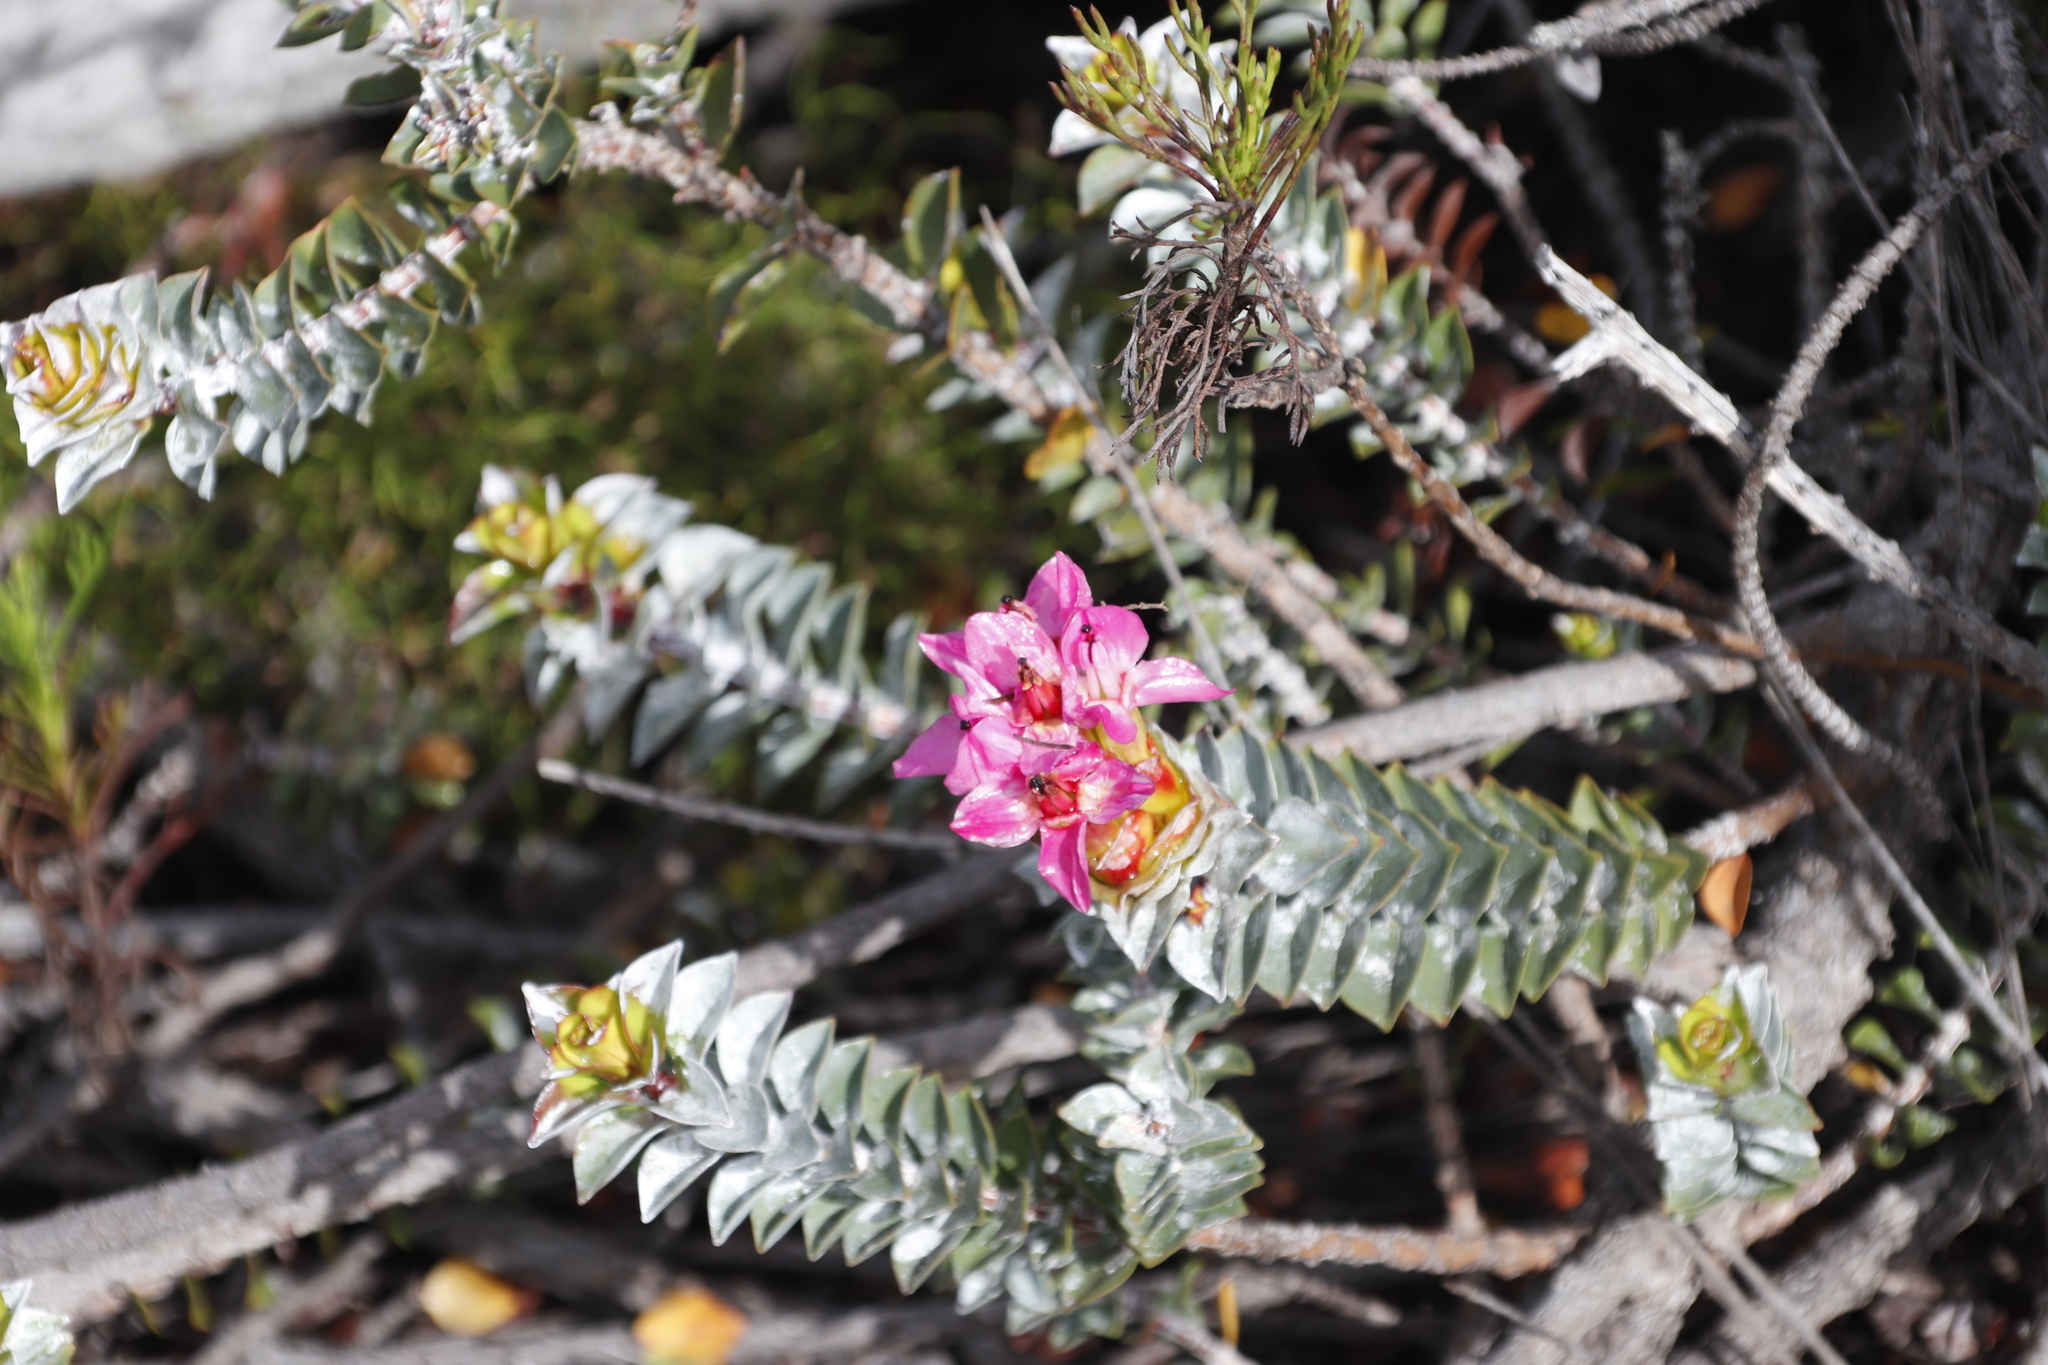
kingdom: Plantae
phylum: Tracheophyta
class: Magnoliopsida
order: Myrtales
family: Penaeaceae
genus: Saltera
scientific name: Saltera sarcocolla
